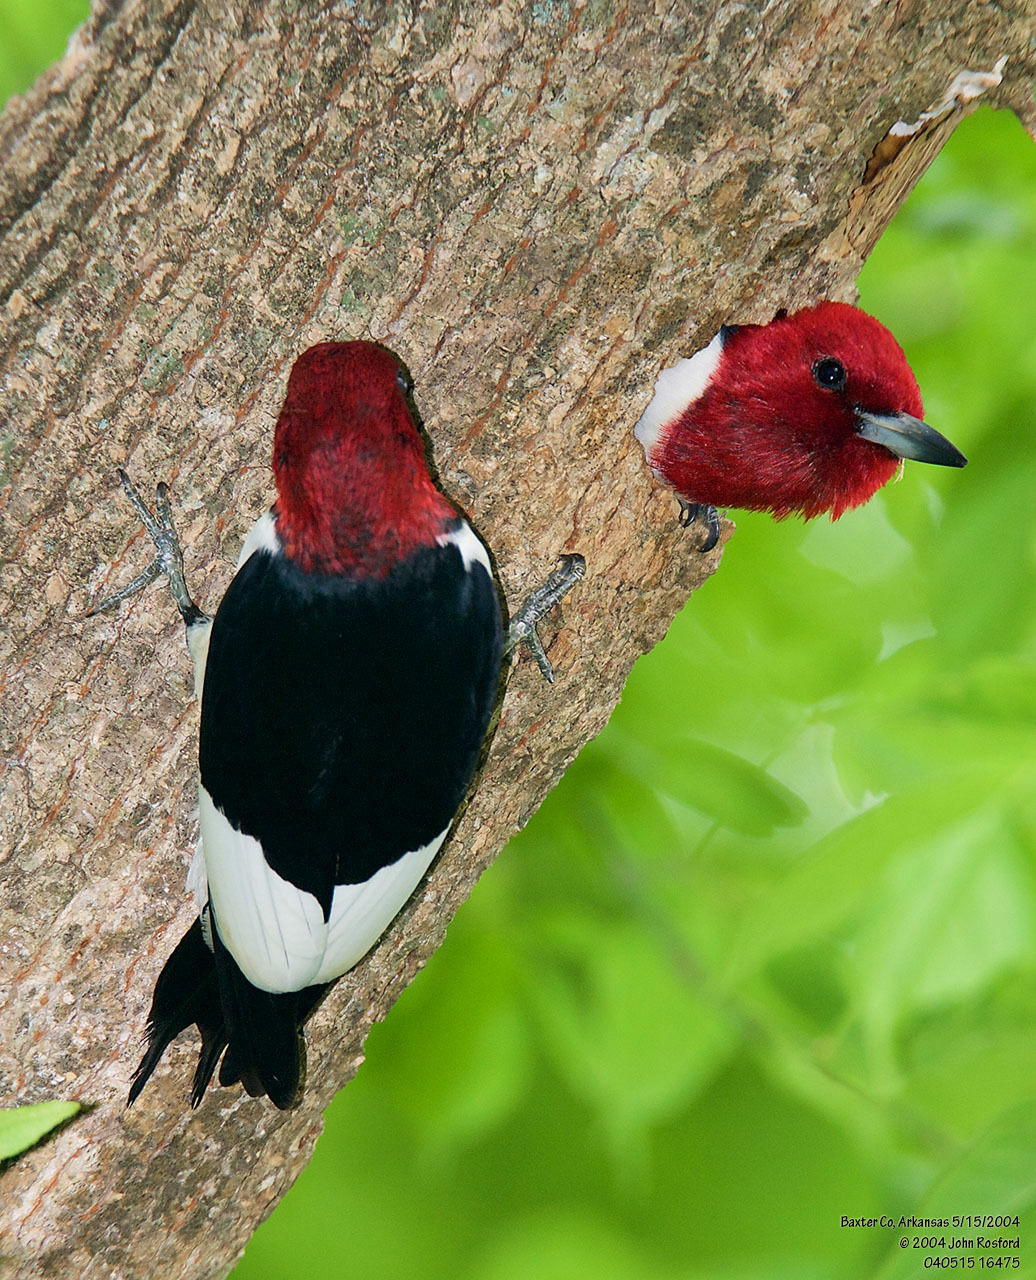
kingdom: Animalia
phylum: Chordata
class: Aves
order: Piciformes
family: Picidae
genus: Melanerpes
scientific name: Melanerpes erythrocephalus
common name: Red-headed woodpecker
